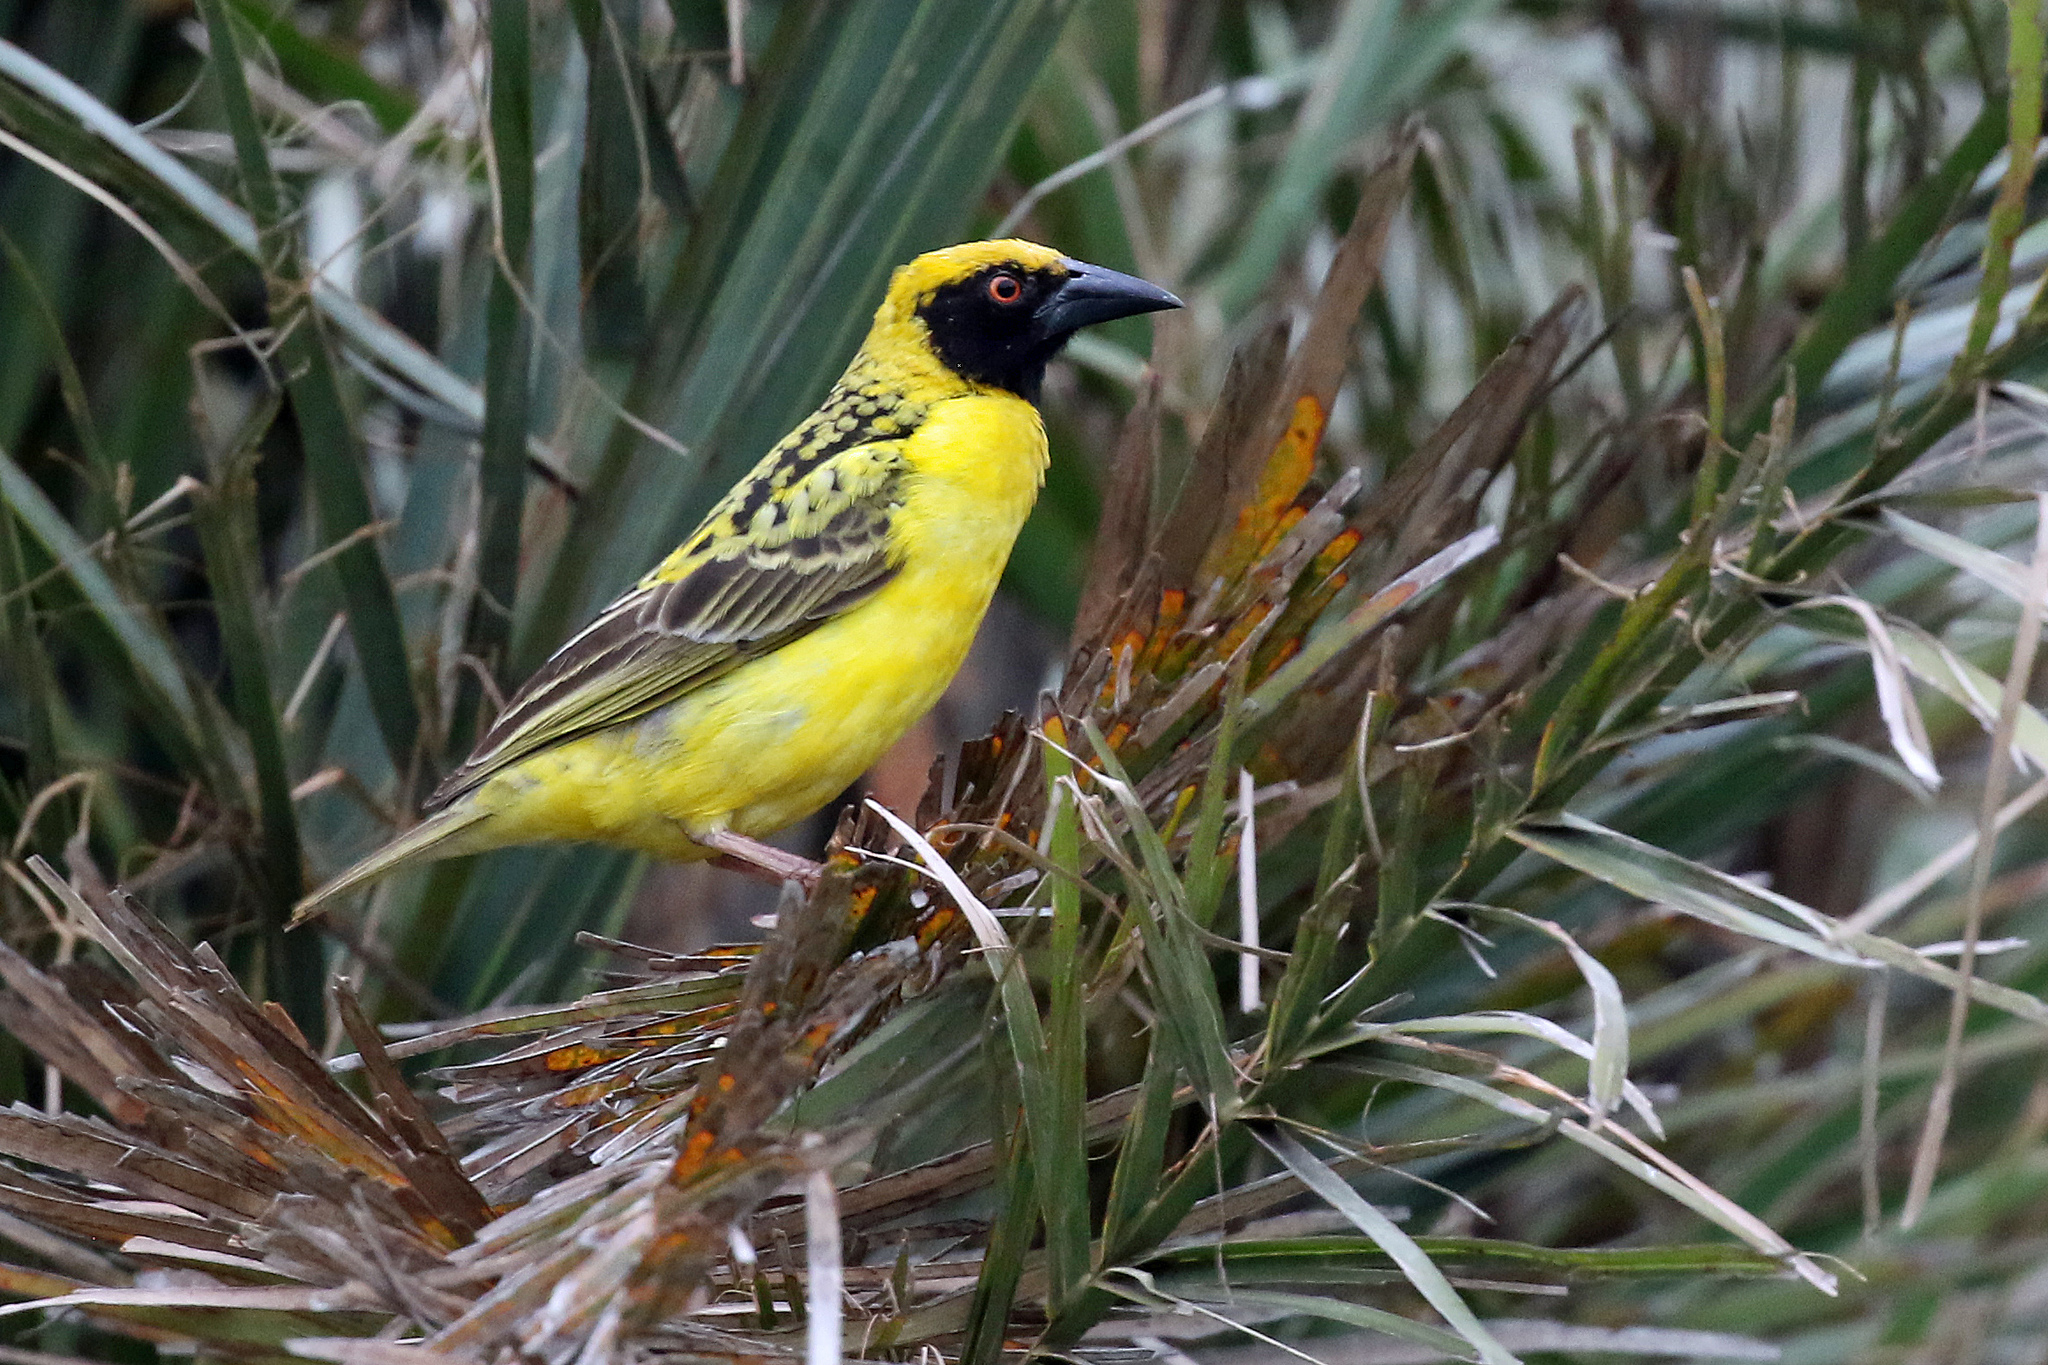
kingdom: Animalia
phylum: Chordata
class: Aves
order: Passeriformes
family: Ploceidae
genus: Ploceus
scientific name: Ploceus cucullatus
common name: Village weaver
